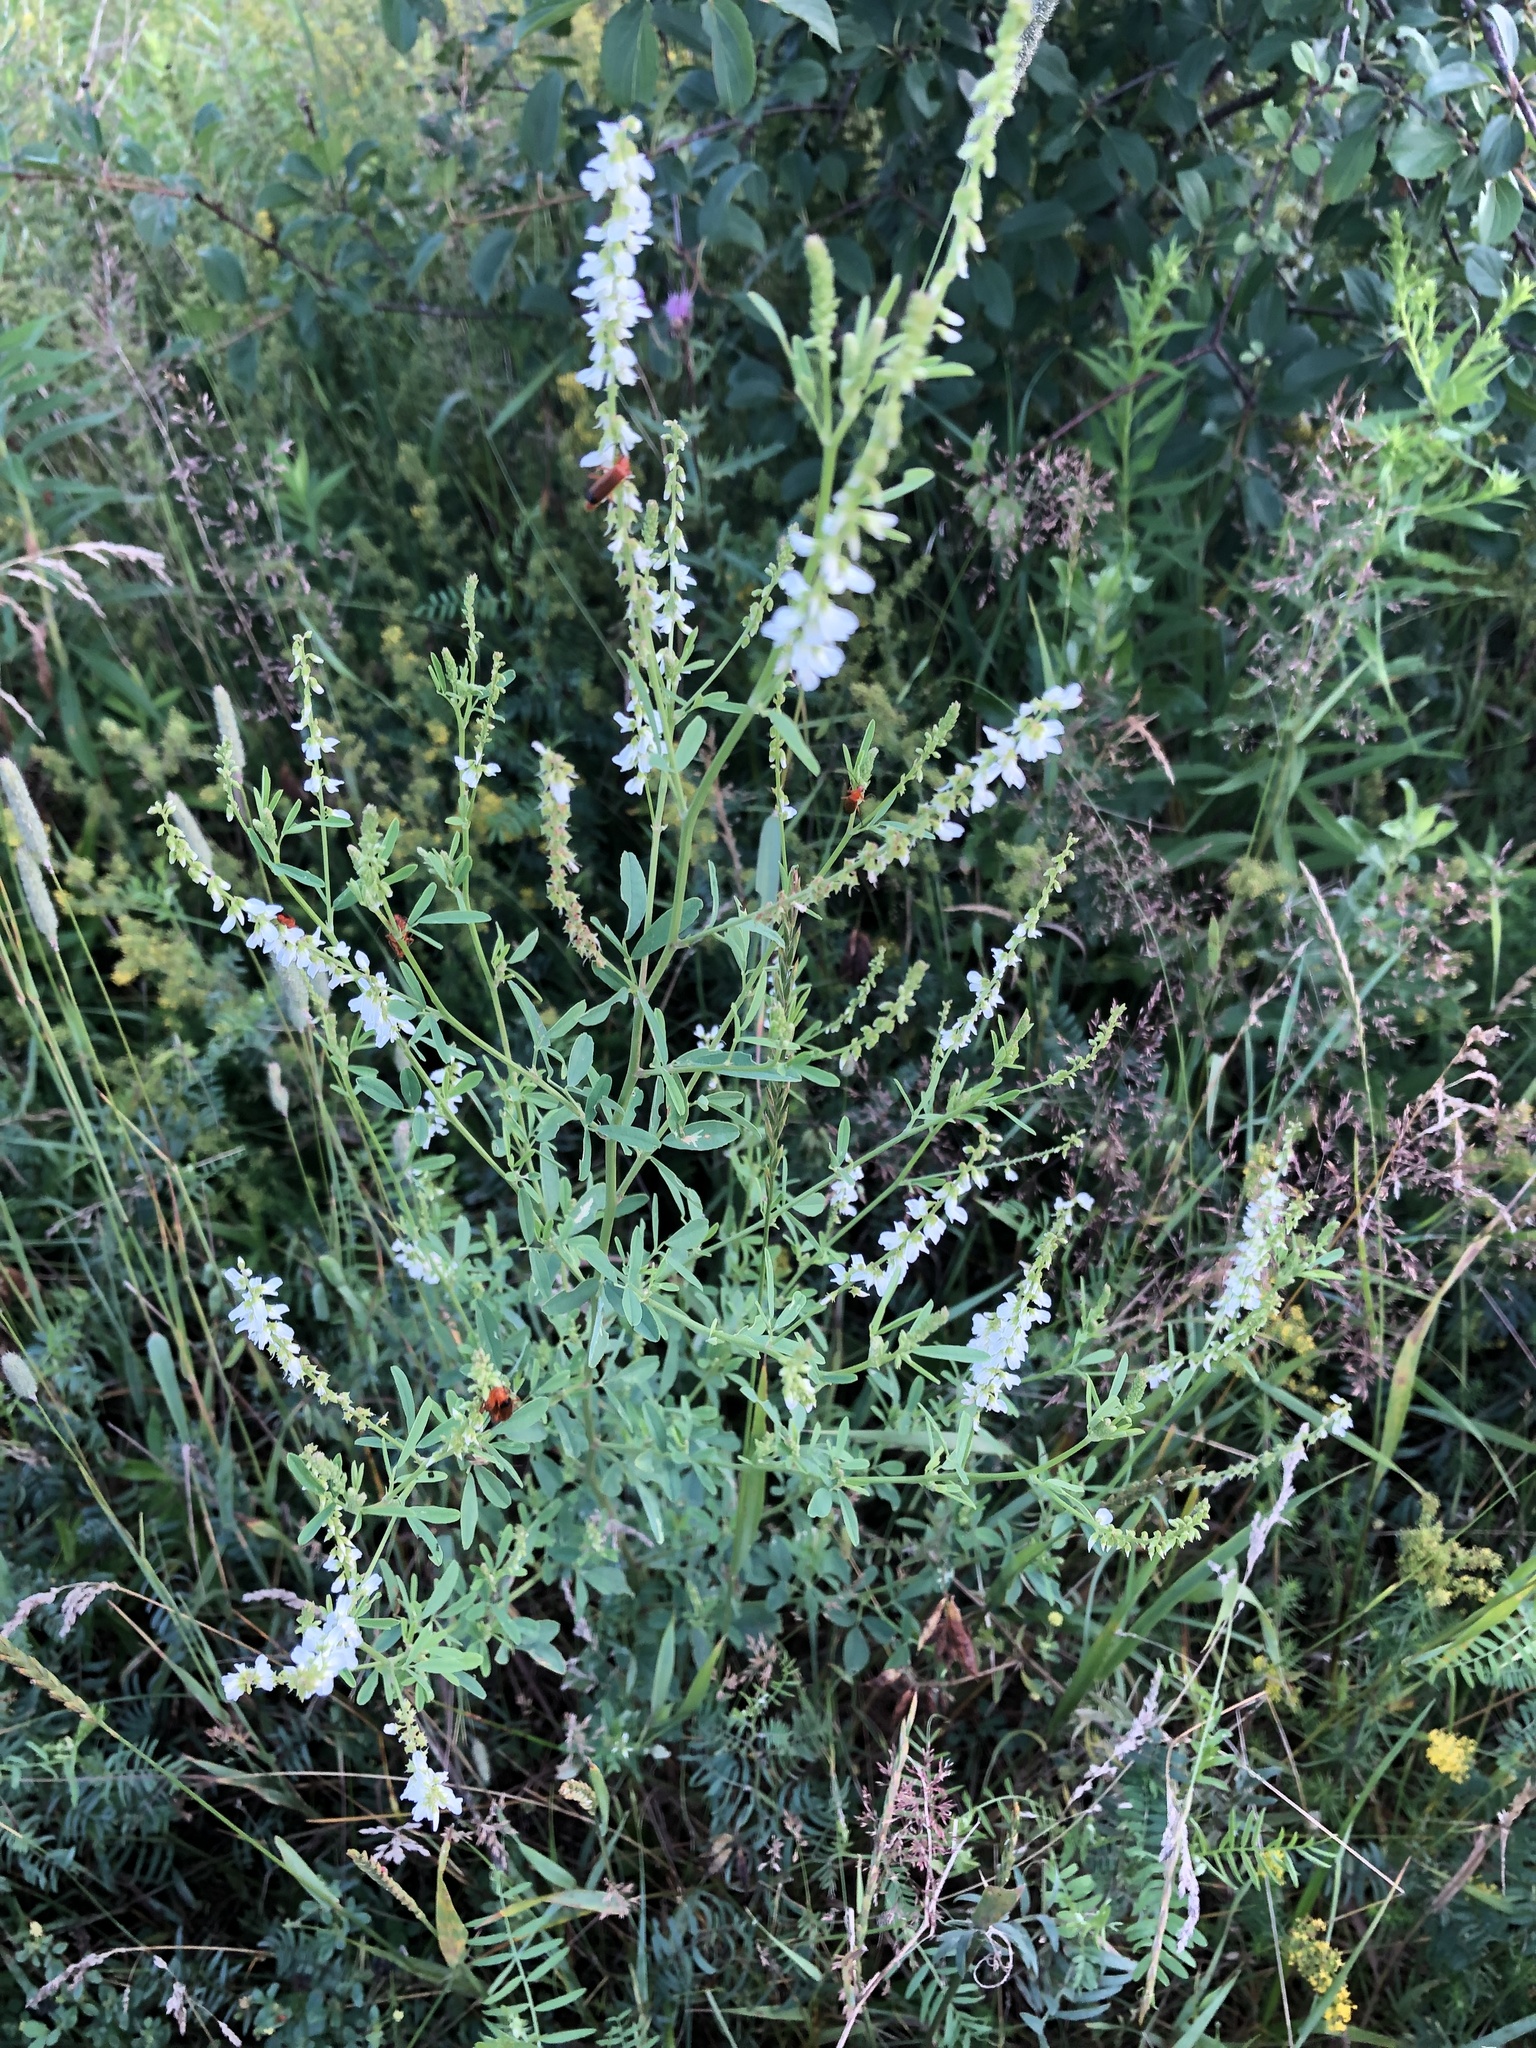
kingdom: Plantae
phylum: Tracheophyta
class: Magnoliopsida
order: Fabales
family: Fabaceae
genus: Melilotus
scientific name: Melilotus albus
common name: White melilot
